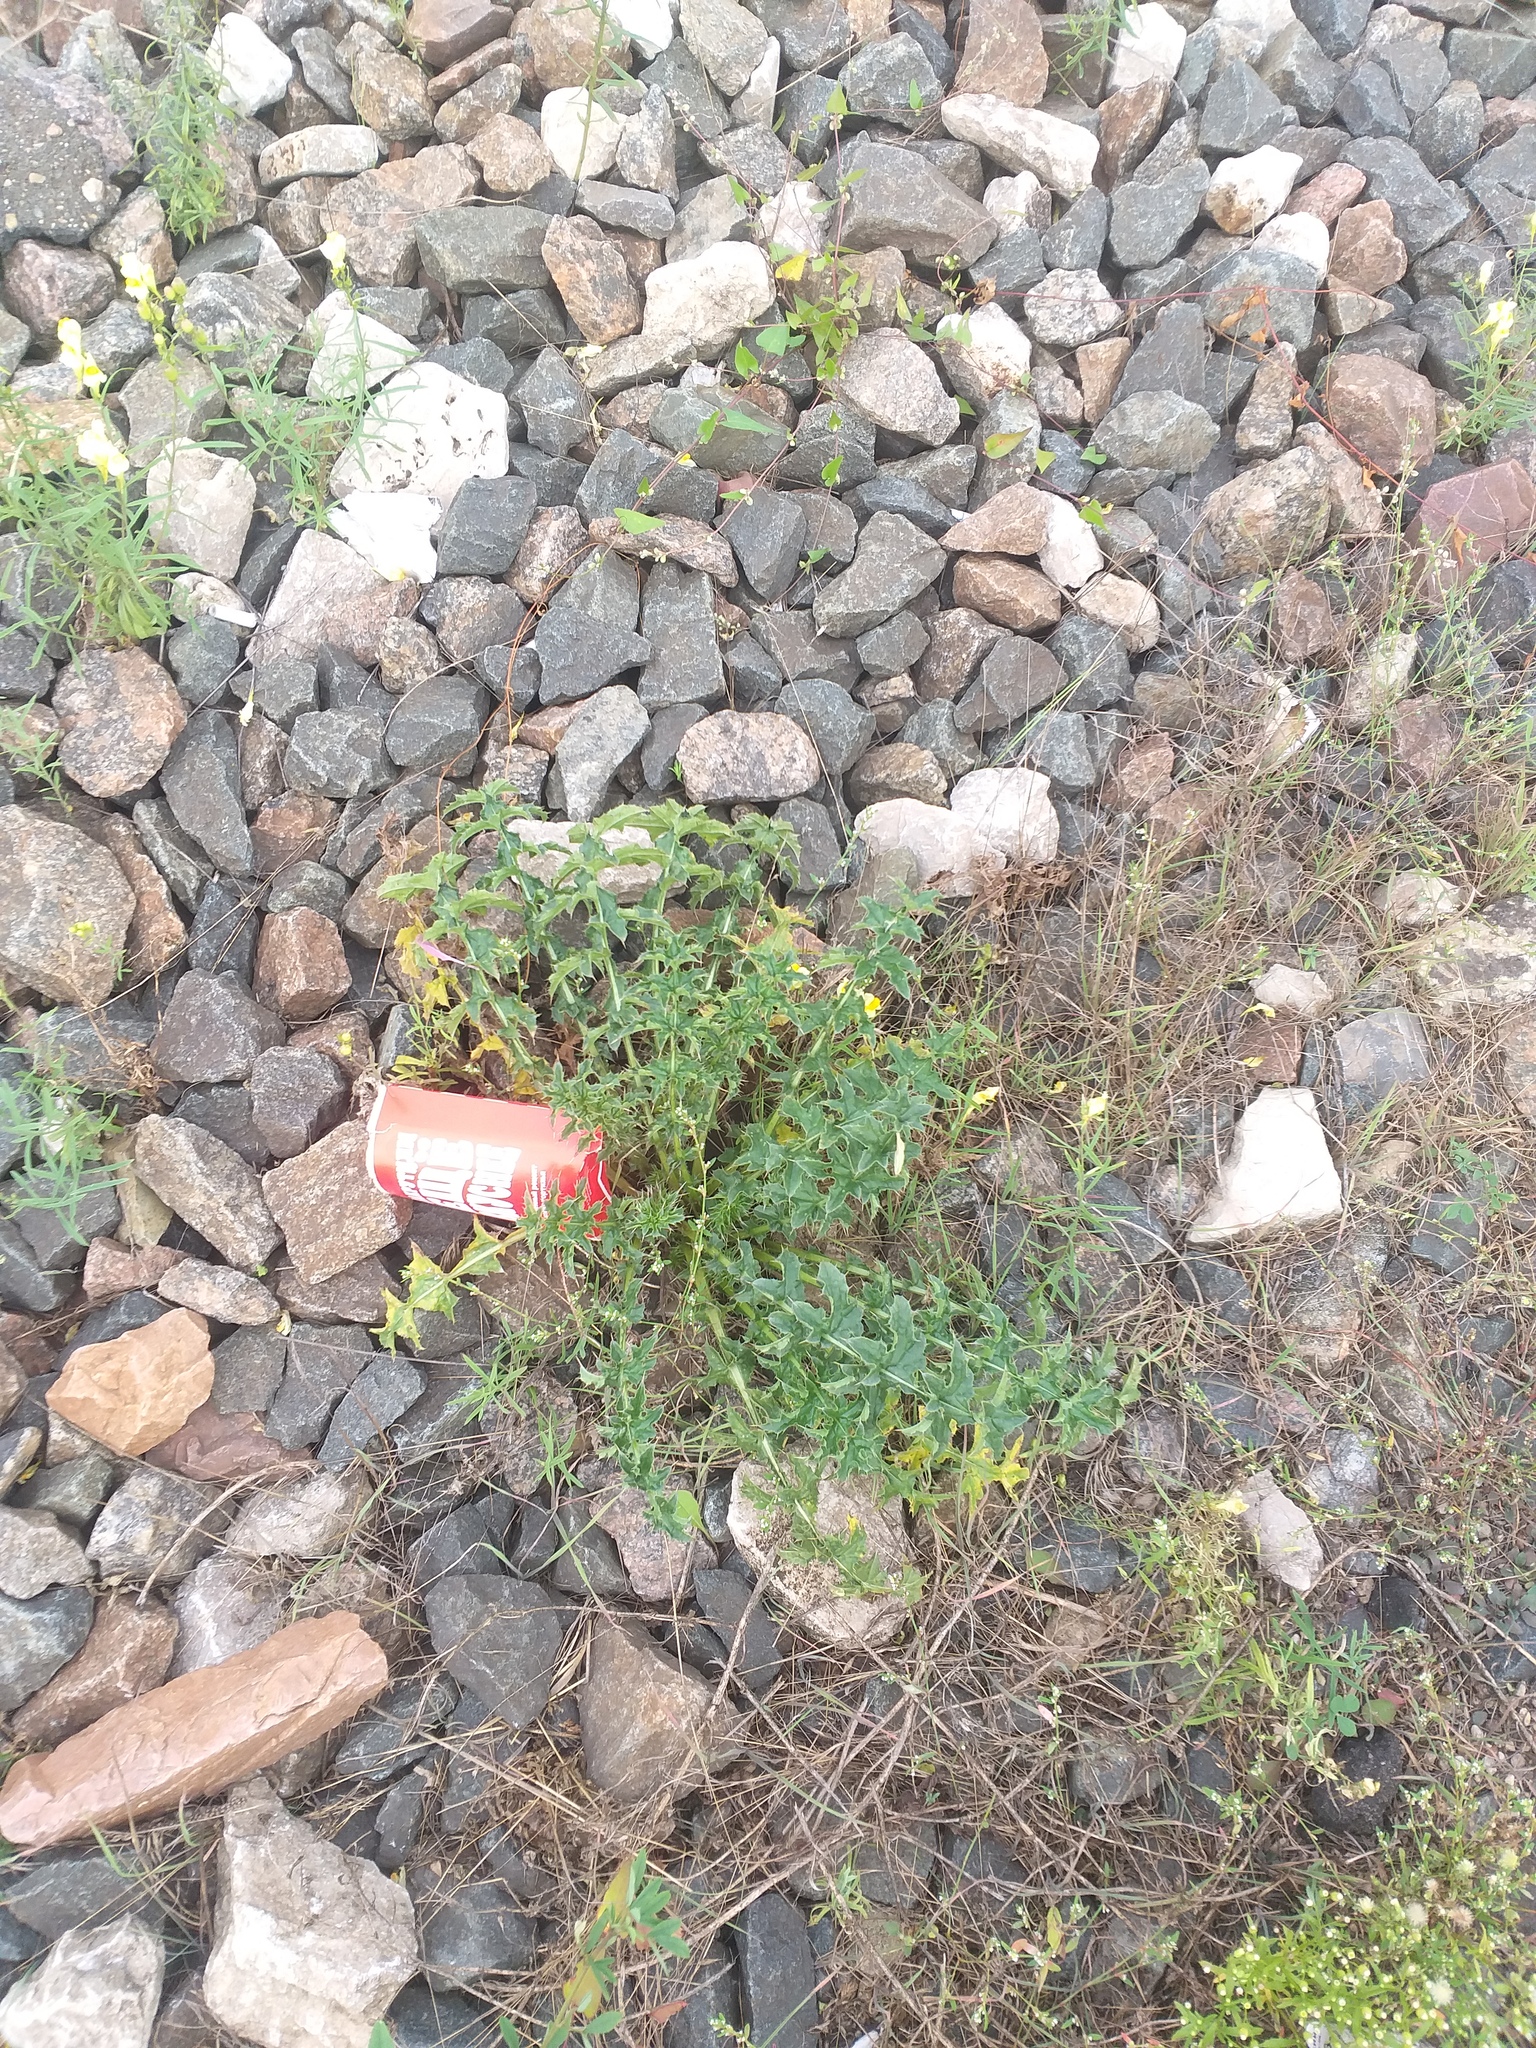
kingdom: Plantae
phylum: Tracheophyta
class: Magnoliopsida
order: Asterales
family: Asteraceae
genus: Carduus
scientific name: Carduus acanthoides
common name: Plumeless thistle
